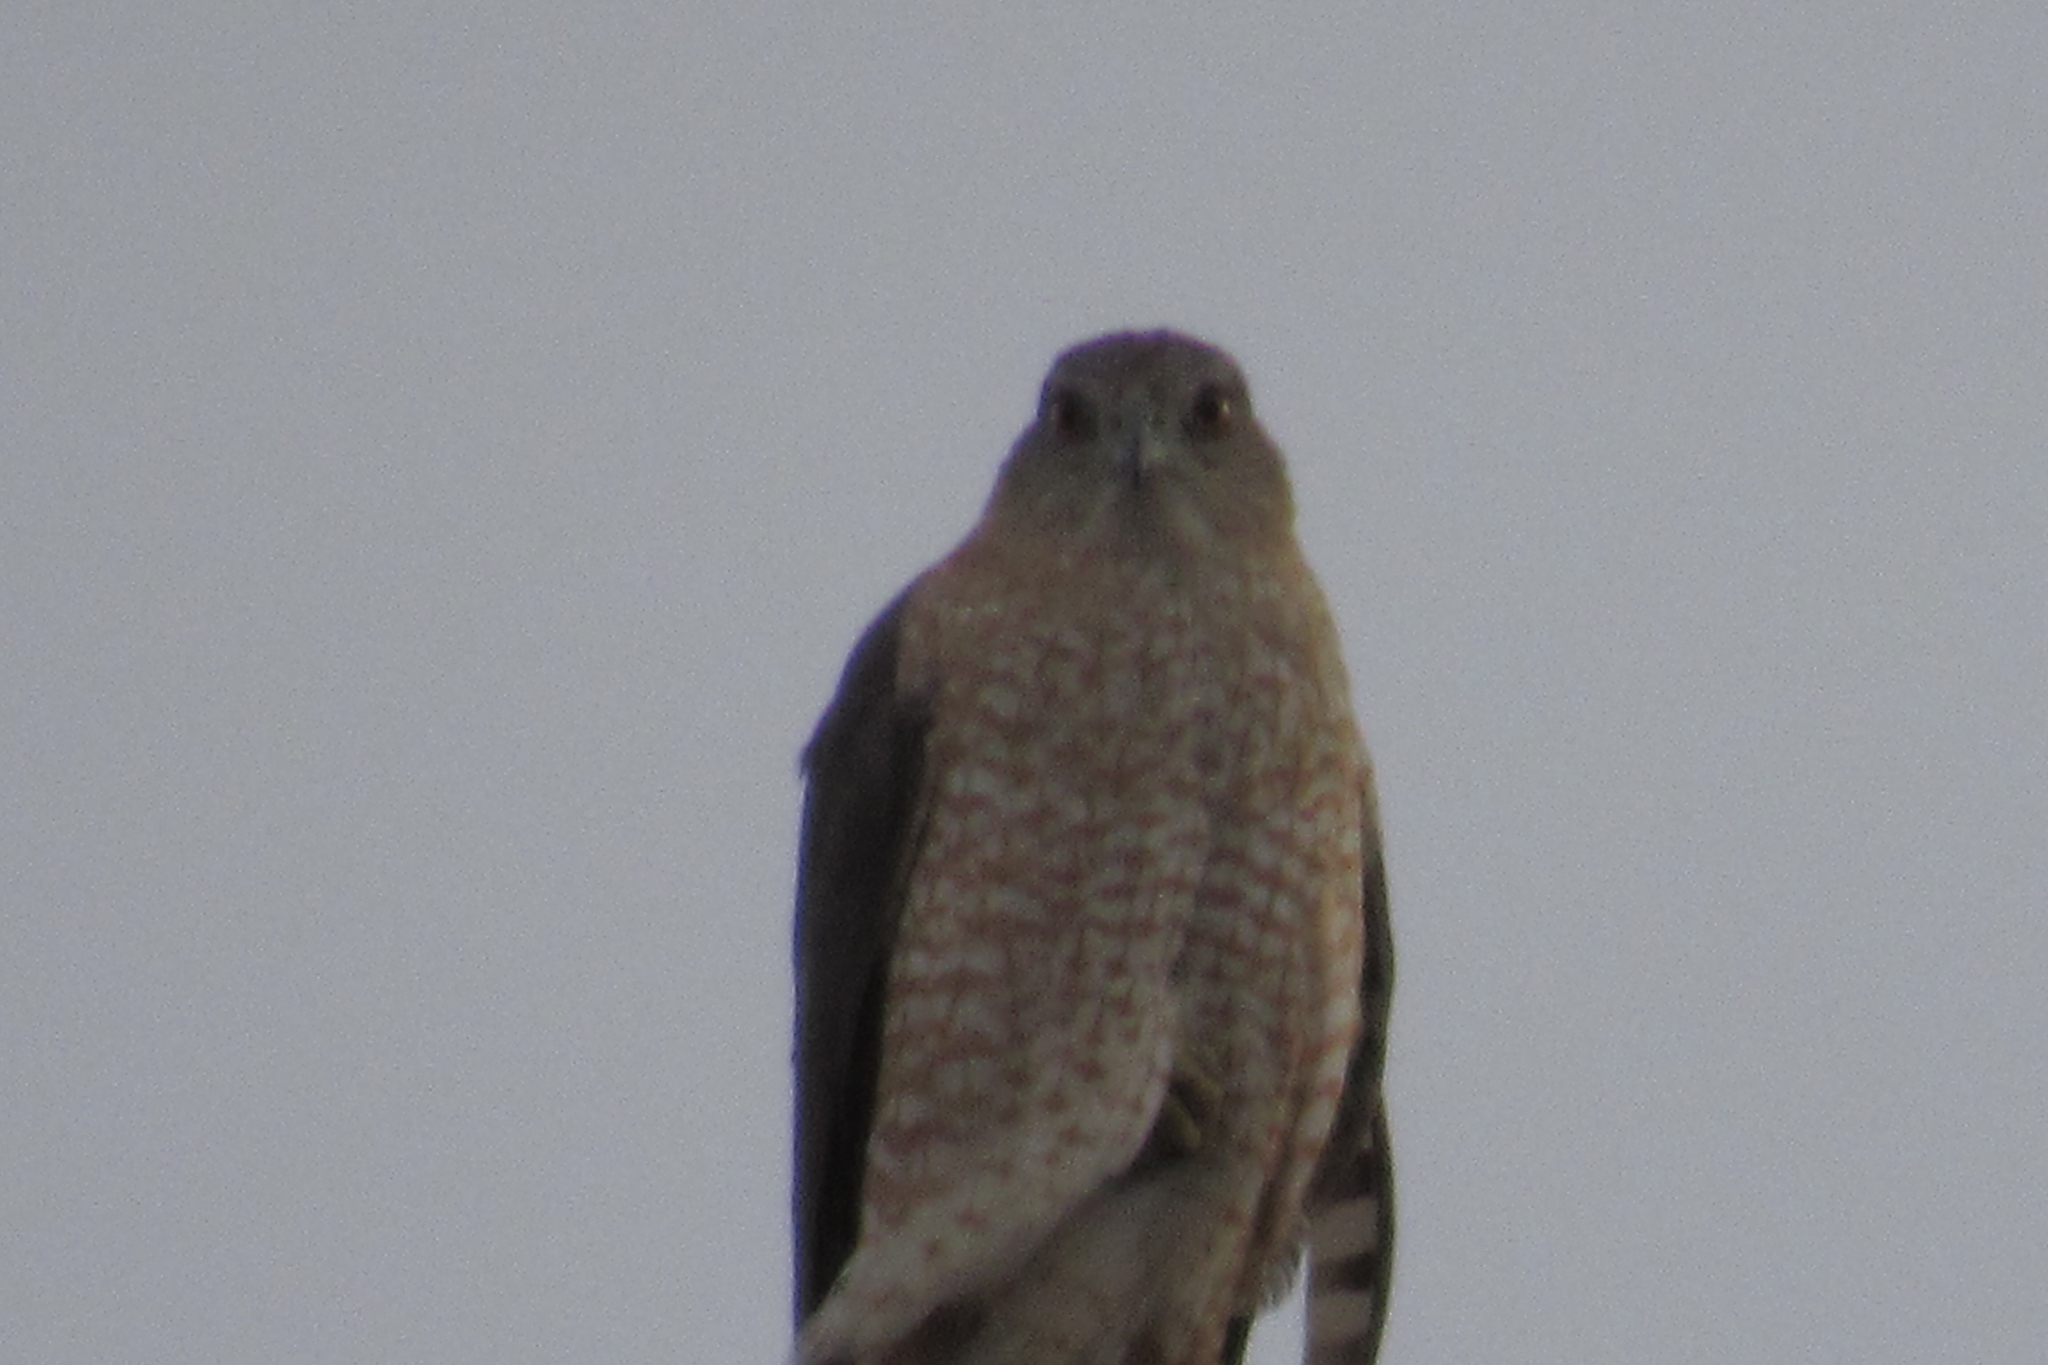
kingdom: Animalia
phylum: Chordata
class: Aves
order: Accipitriformes
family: Accipitridae
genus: Accipiter
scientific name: Accipiter cooperii
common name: Cooper's hawk
